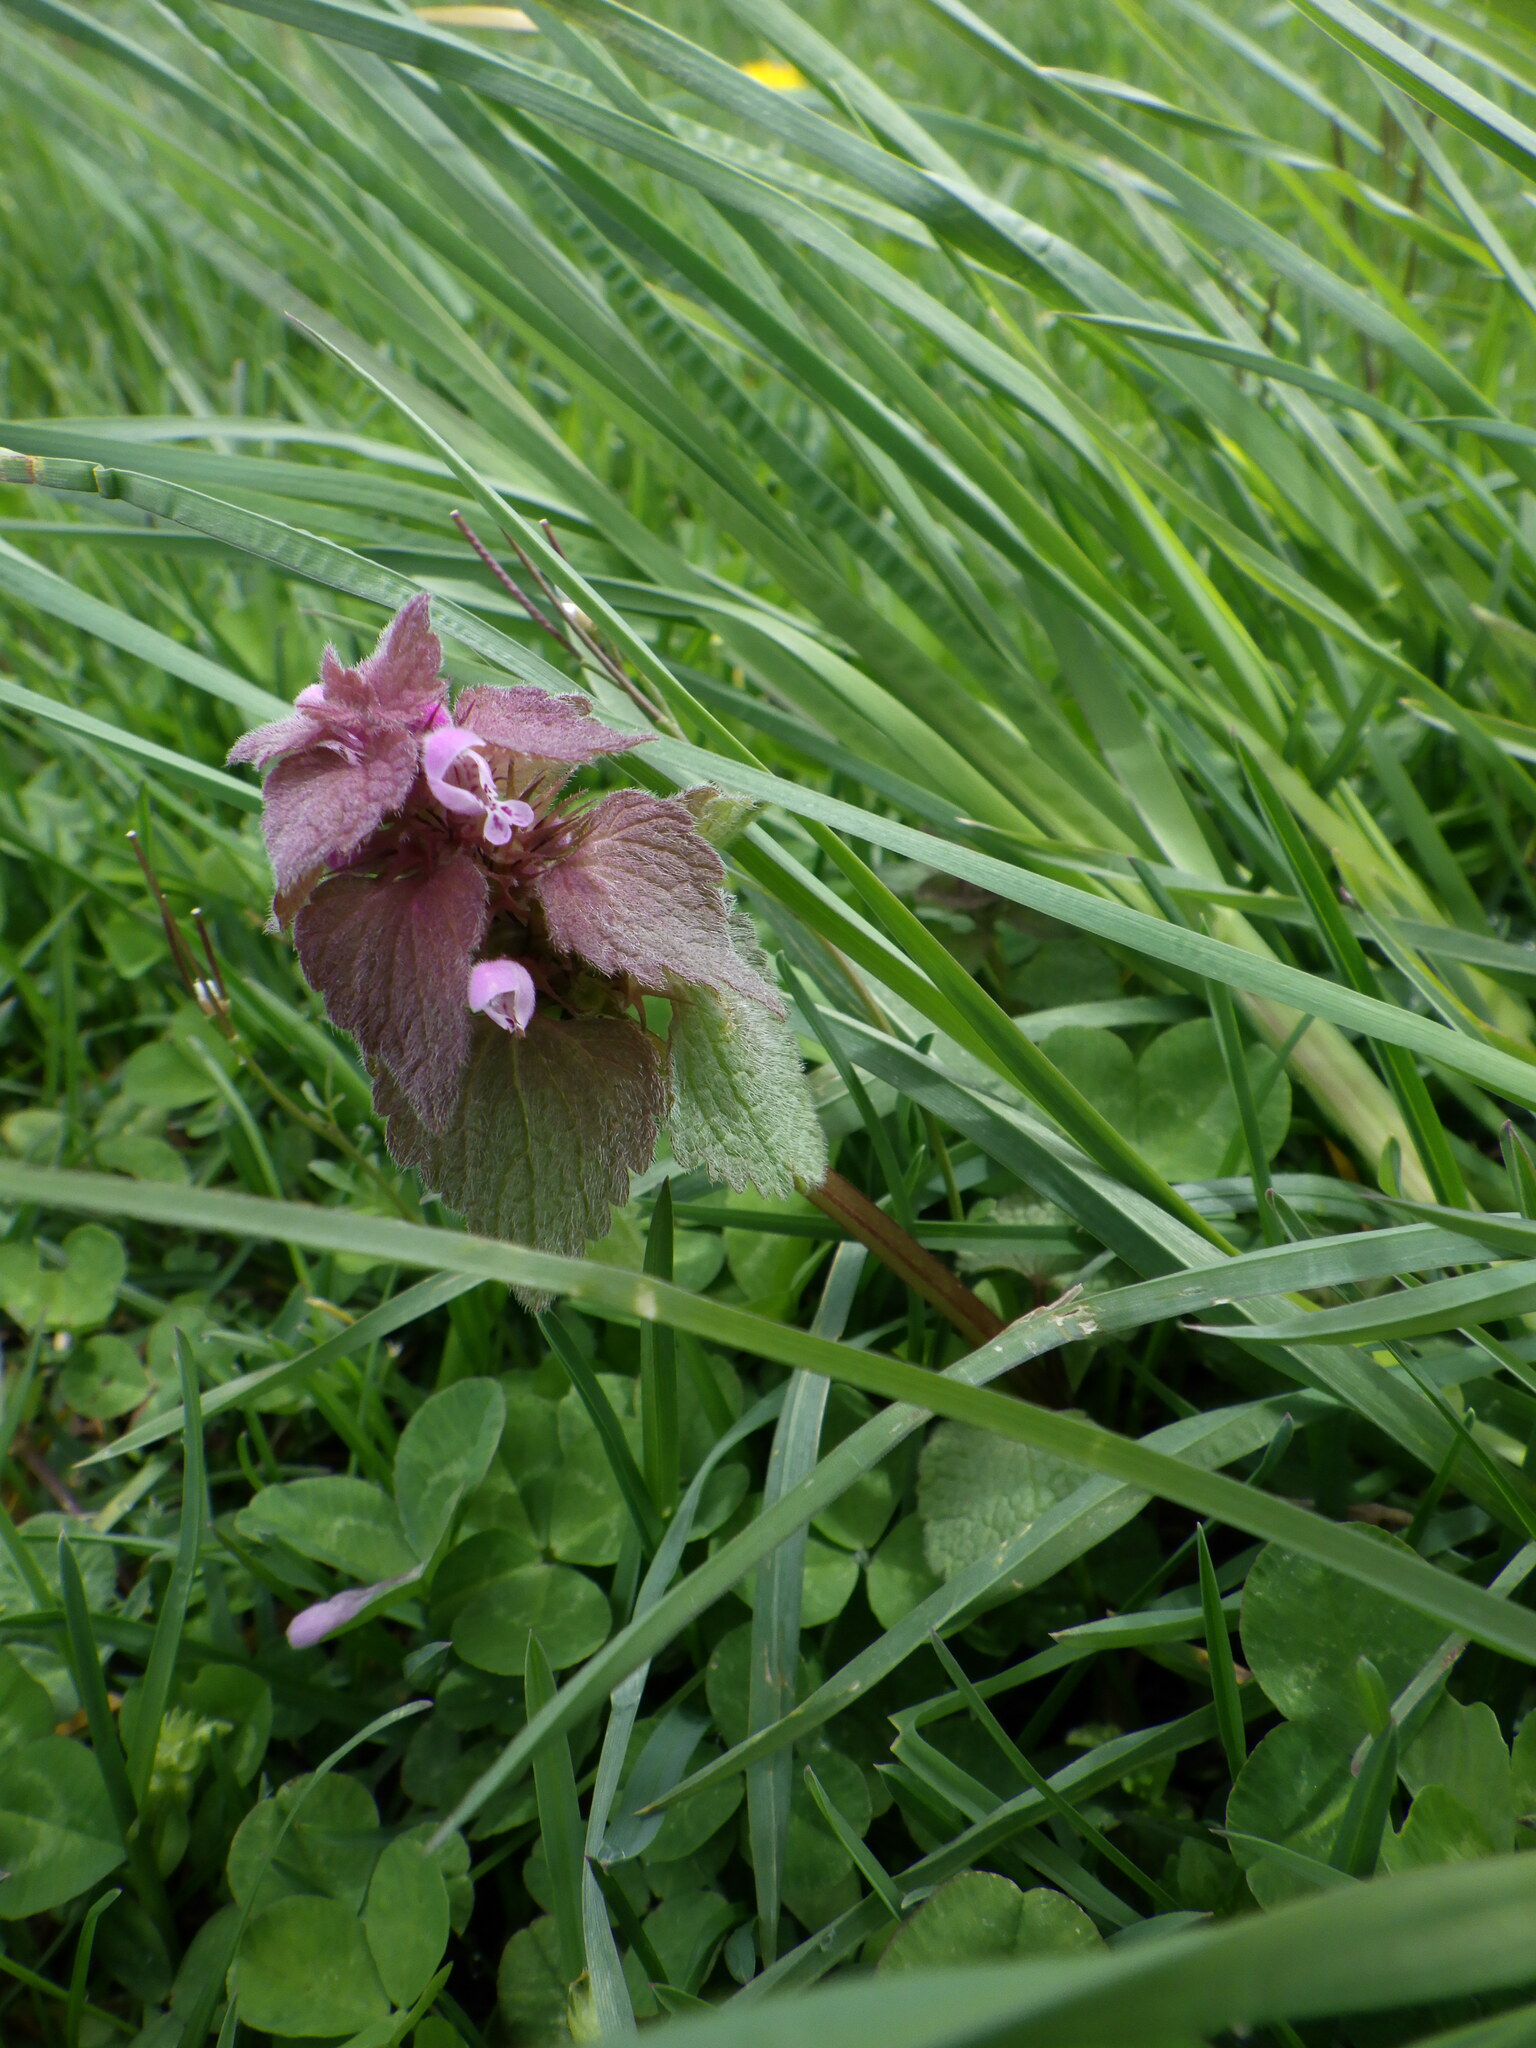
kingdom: Plantae
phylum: Tracheophyta
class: Magnoliopsida
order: Lamiales
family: Lamiaceae
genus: Lamium
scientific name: Lamium purpureum
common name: Red dead-nettle
